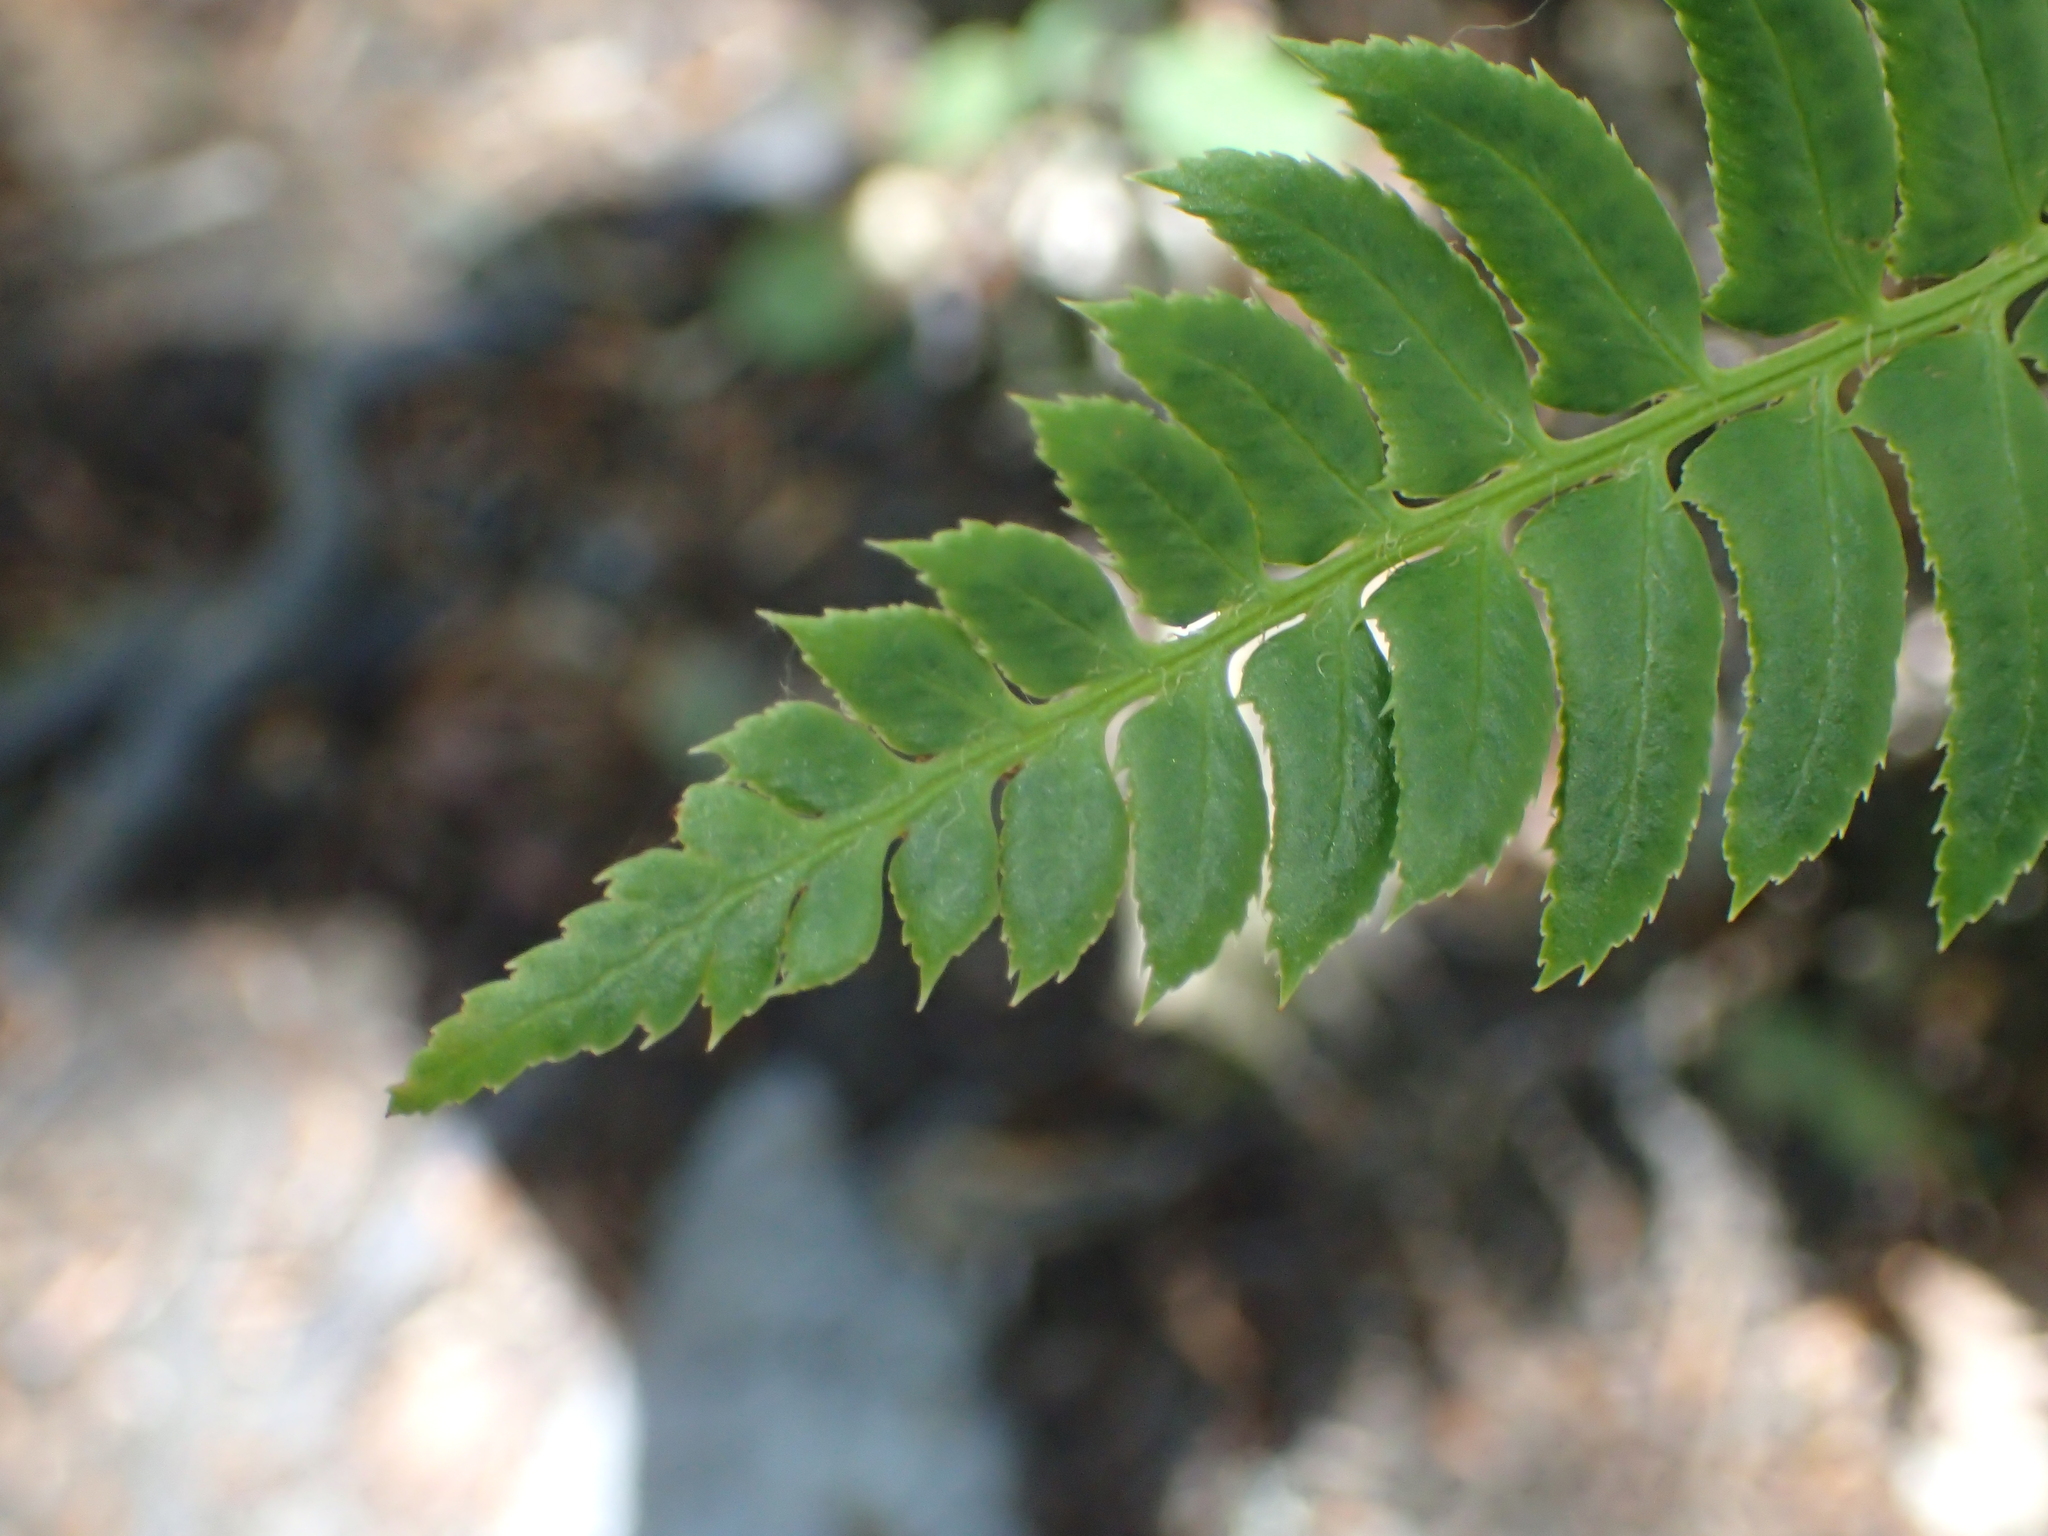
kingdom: Plantae
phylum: Tracheophyta
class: Polypodiopsida
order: Polypodiales
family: Dryopteridaceae
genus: Polystichum
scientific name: Polystichum lonchitis
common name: Holly fern
